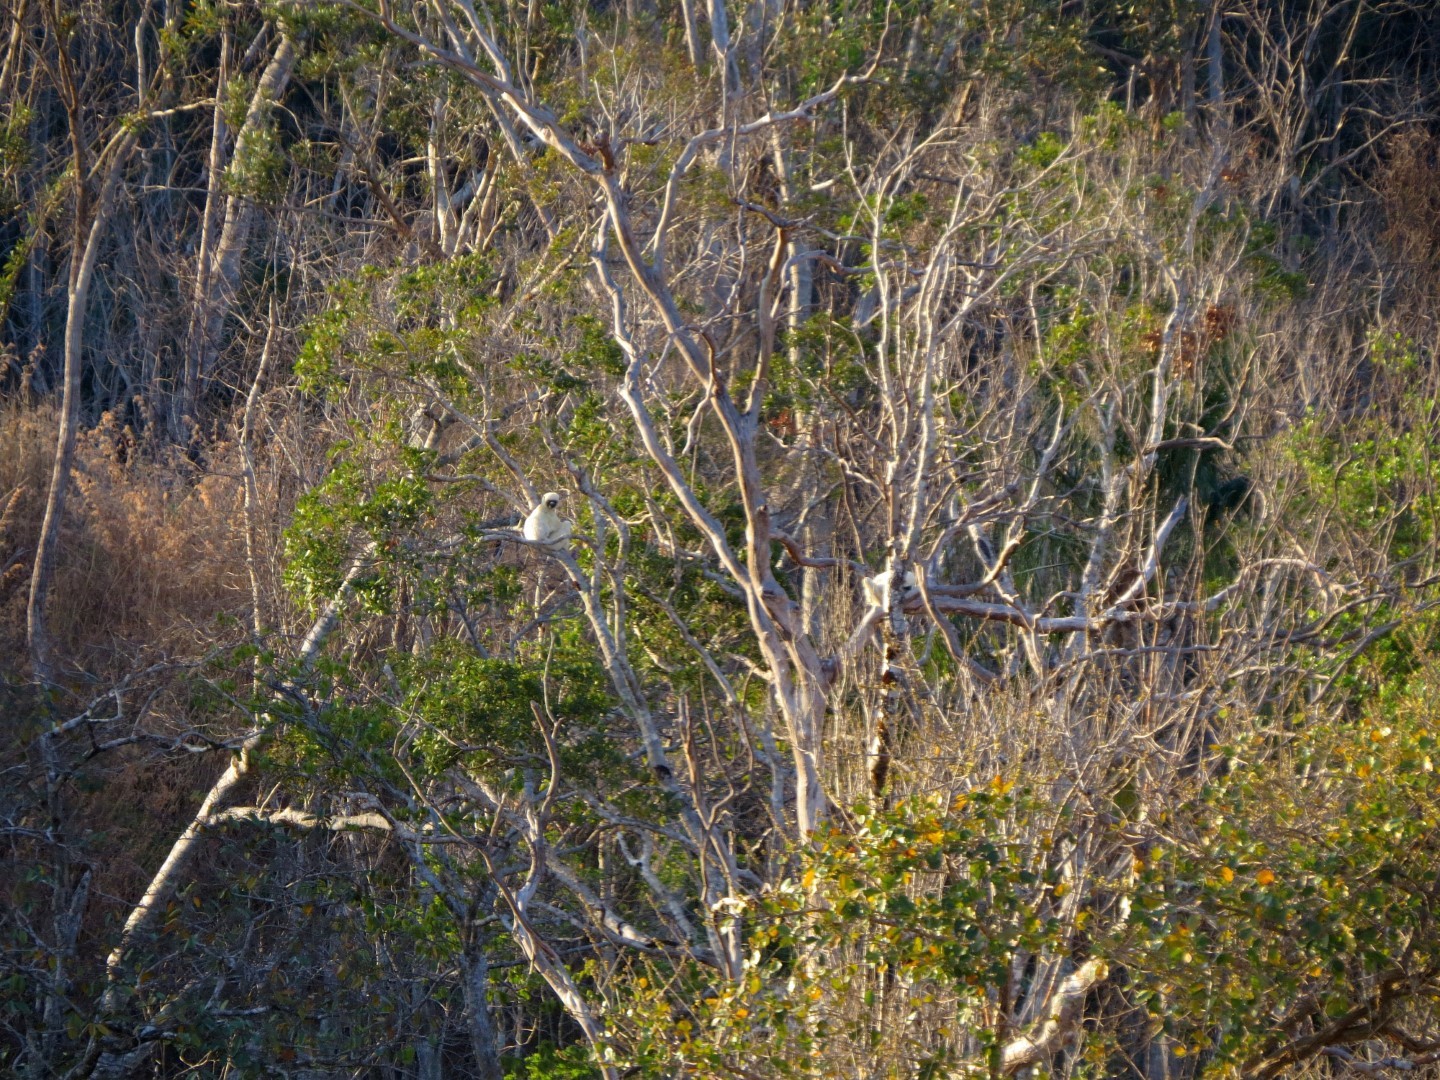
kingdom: Animalia
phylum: Chordata
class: Mammalia
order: Primates
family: Indriidae
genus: Propithecus
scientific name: Propithecus deckenii
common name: Decken's sifaka
